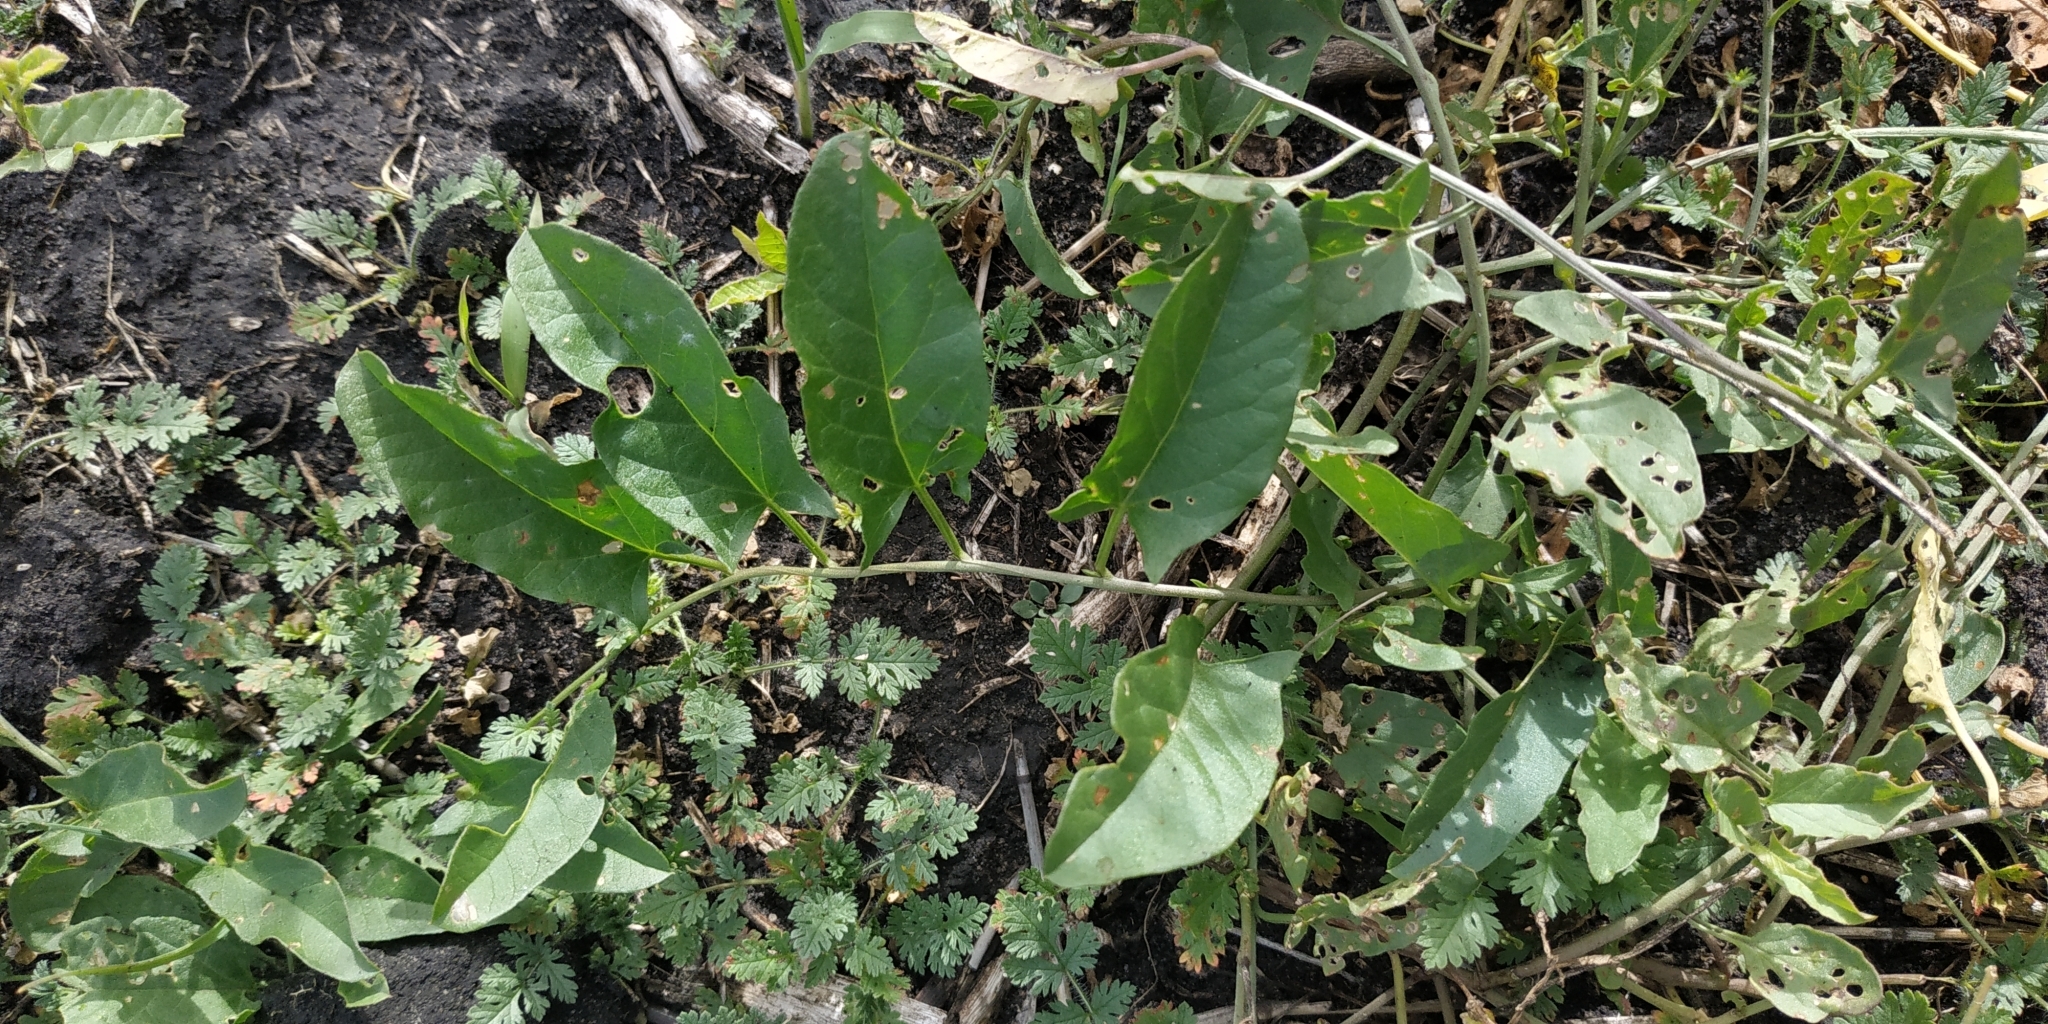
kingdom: Plantae
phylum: Tracheophyta
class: Magnoliopsida
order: Solanales
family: Convolvulaceae
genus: Convolvulus
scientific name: Convolvulus arvensis
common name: Field bindweed
